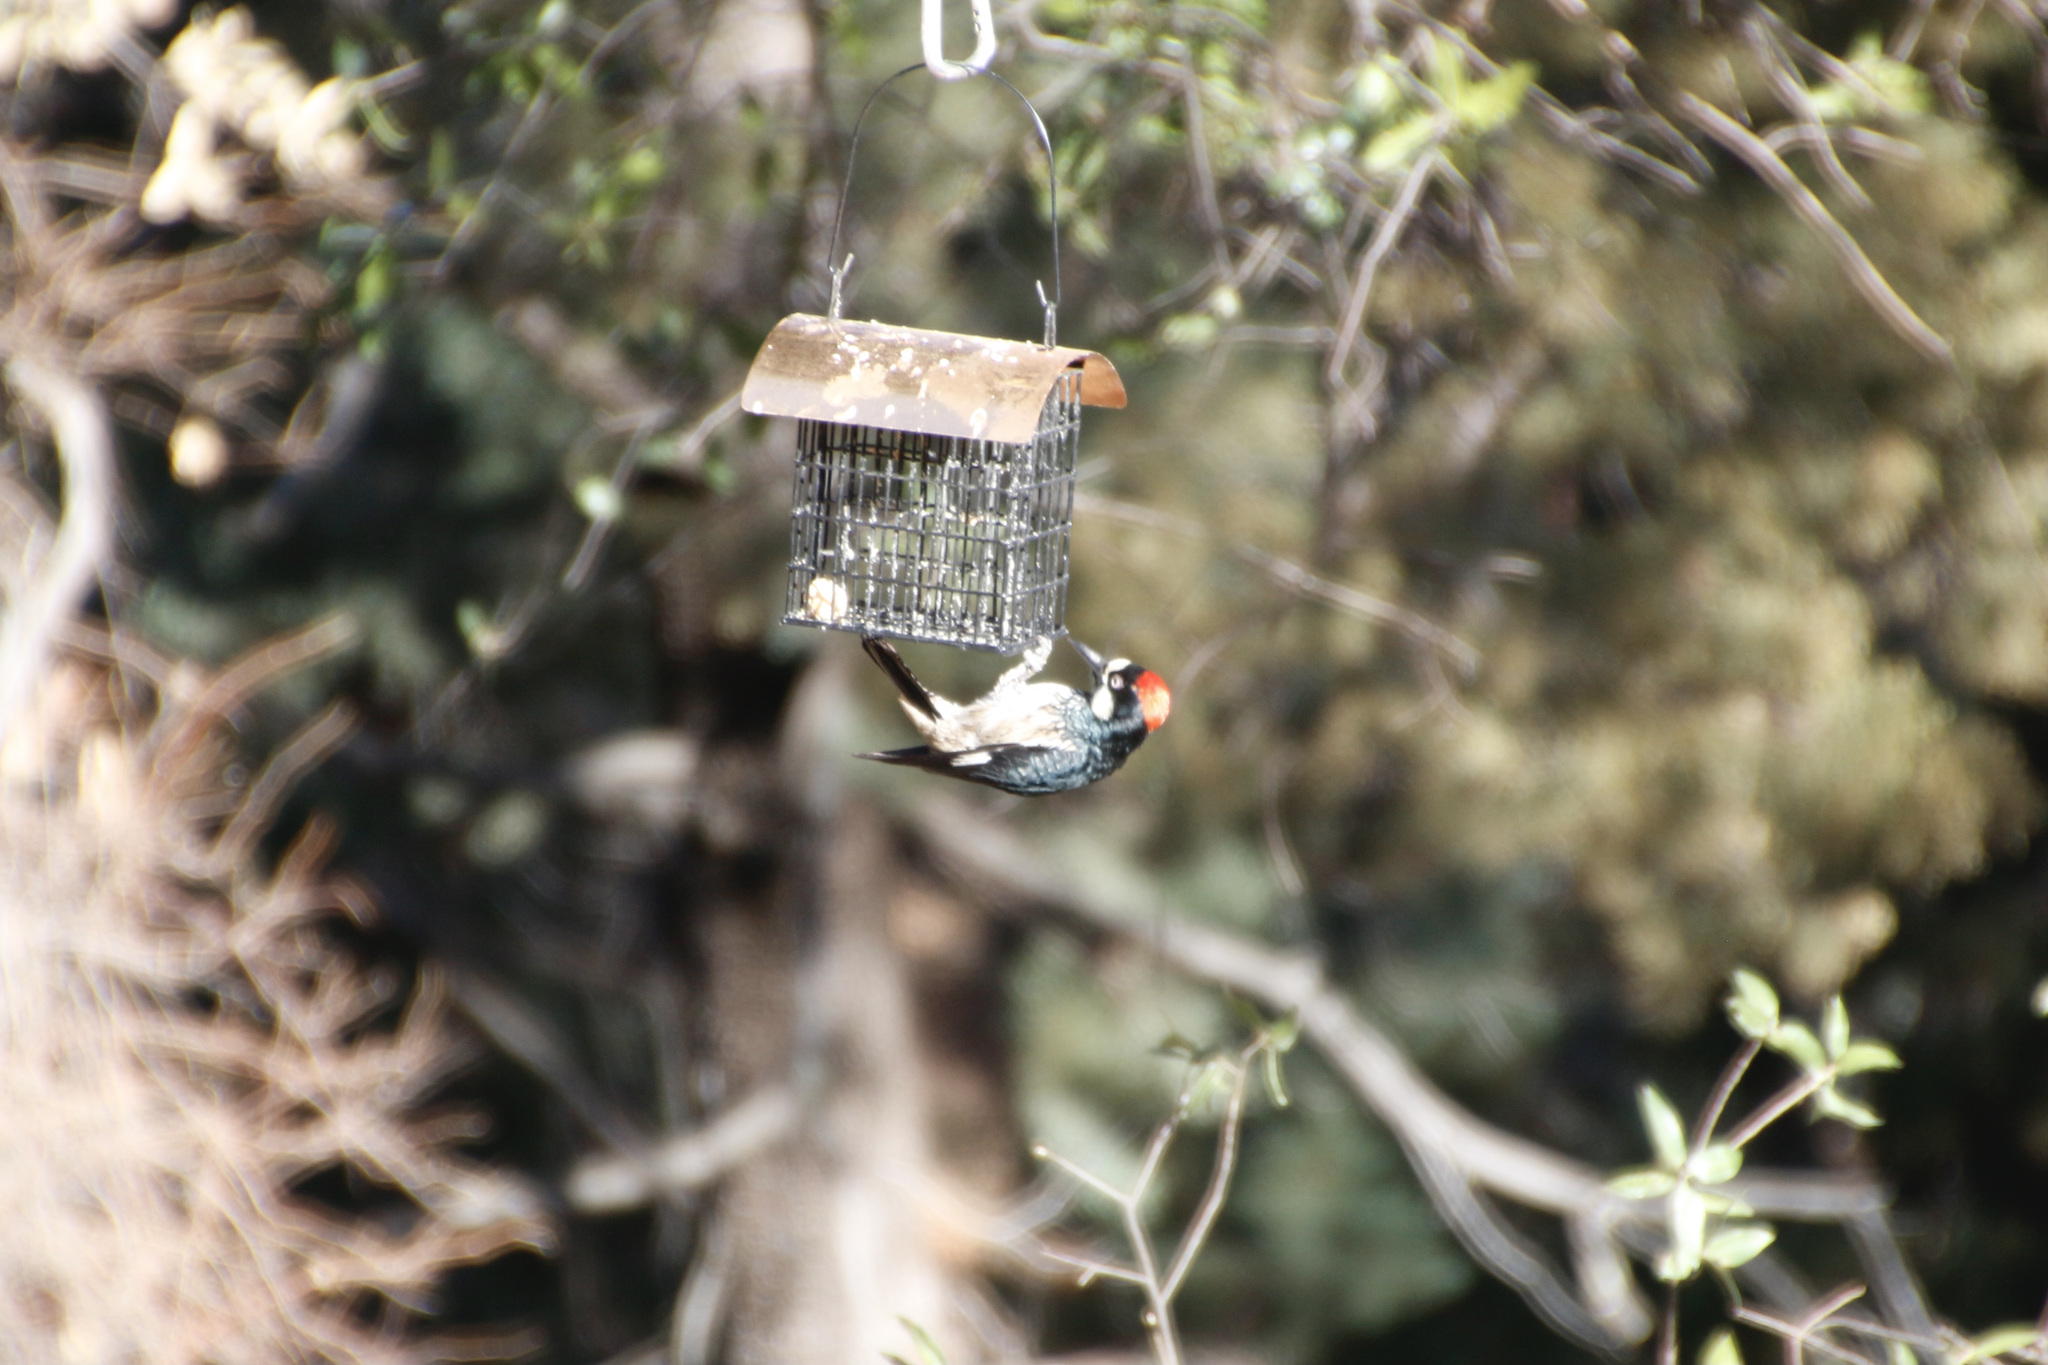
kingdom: Animalia
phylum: Chordata
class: Aves
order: Piciformes
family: Picidae
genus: Melanerpes
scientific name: Melanerpes formicivorus
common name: Acorn woodpecker
